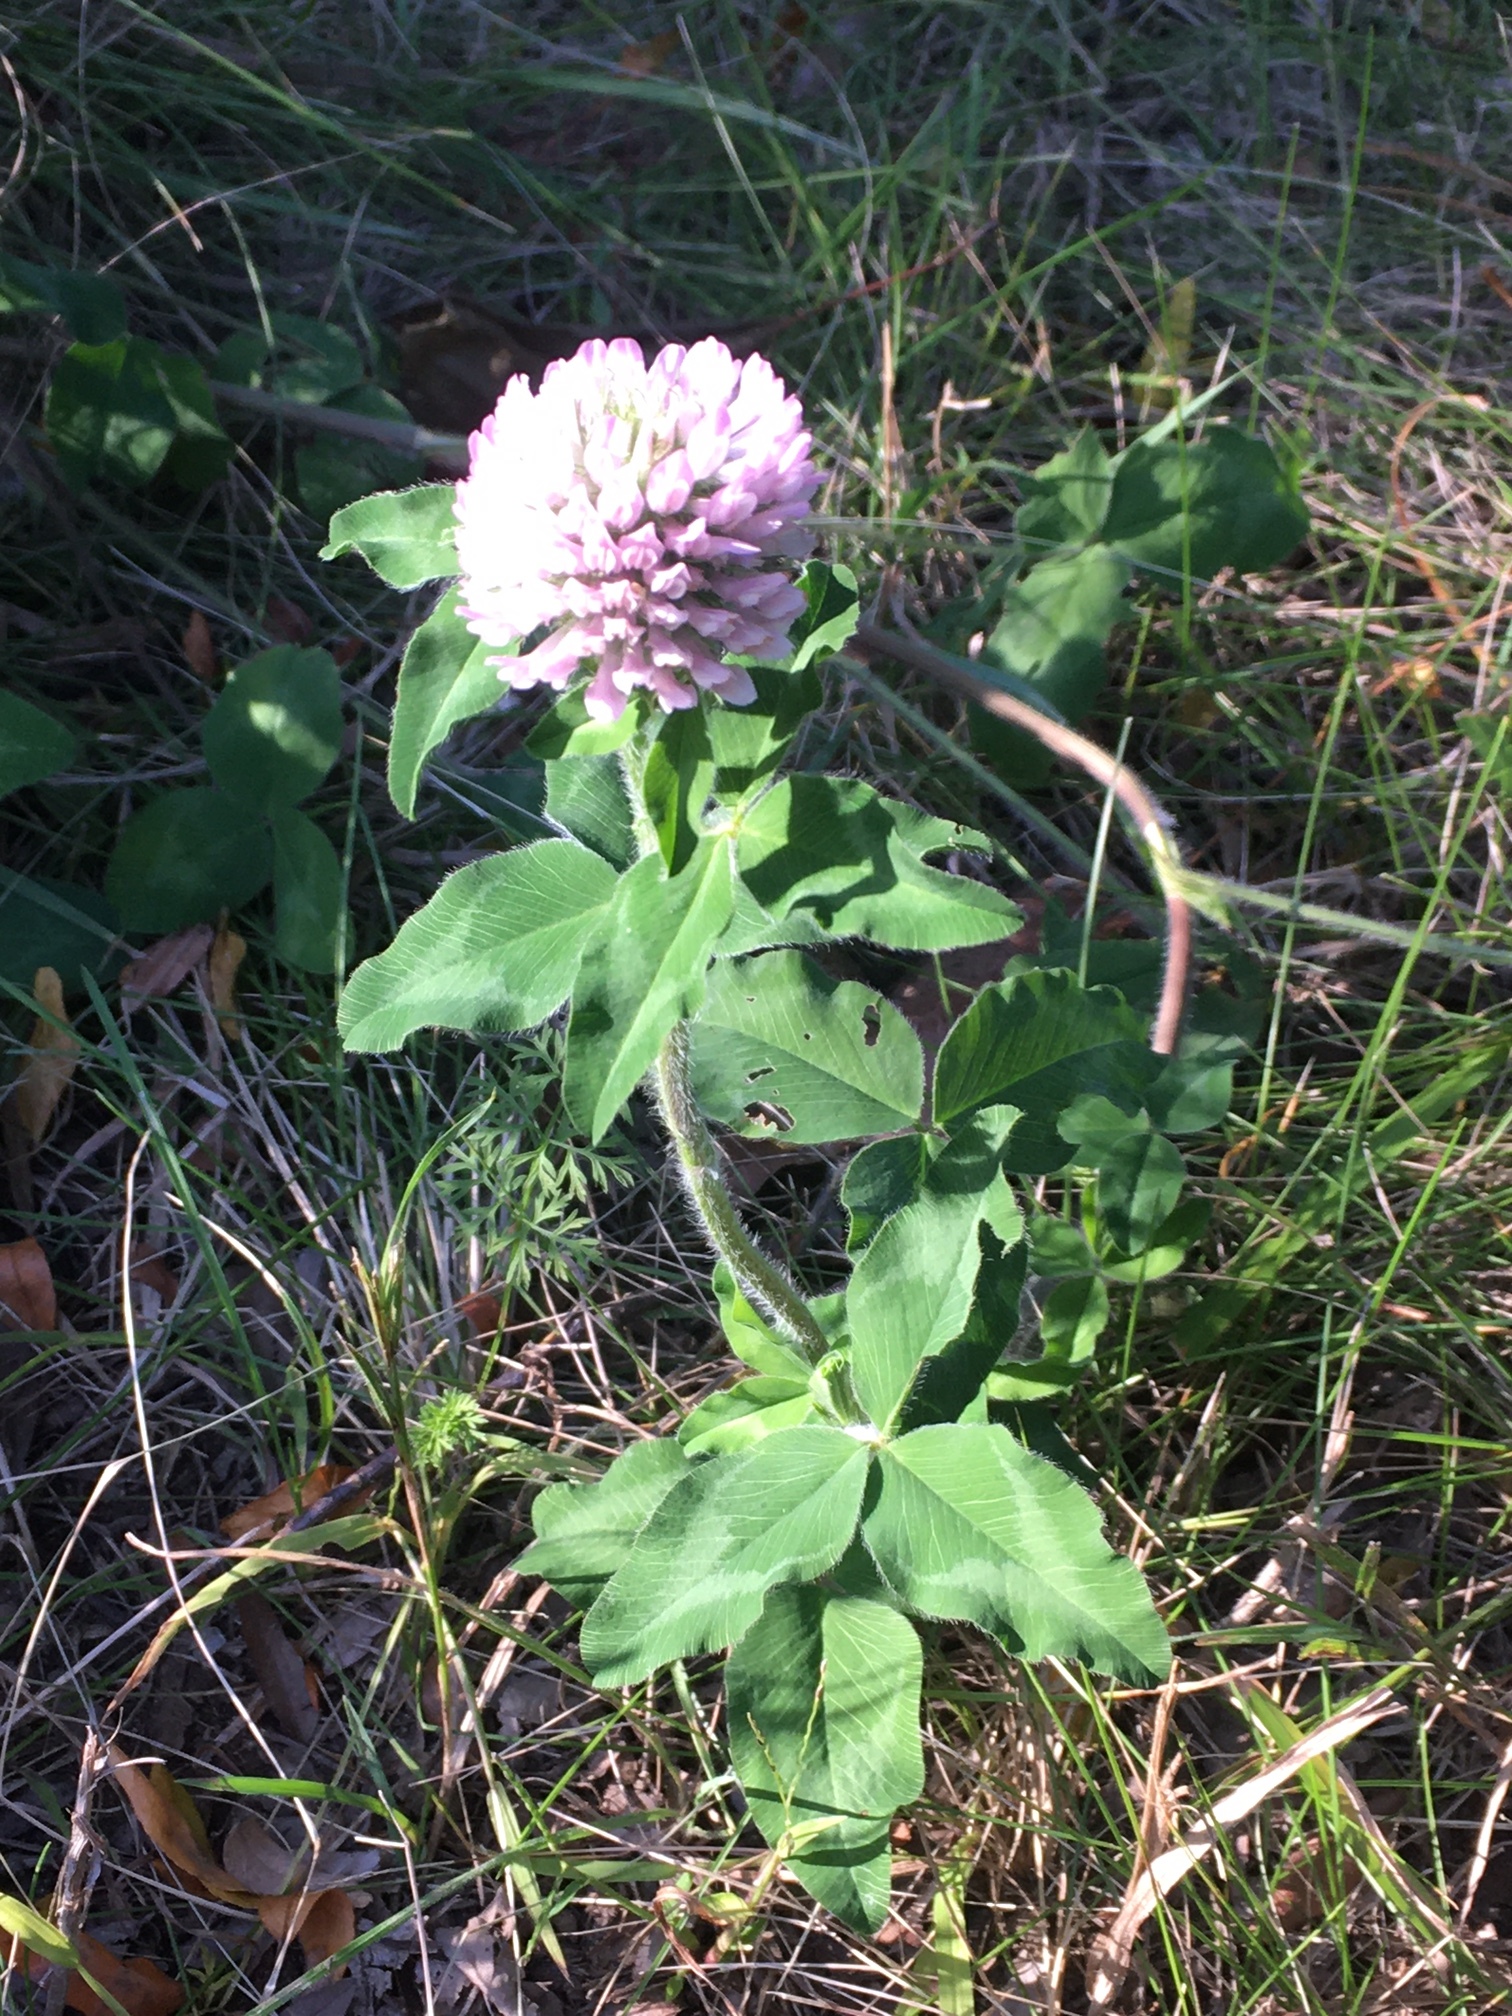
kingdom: Plantae
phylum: Tracheophyta
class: Magnoliopsida
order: Fabales
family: Fabaceae
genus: Trifolium
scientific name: Trifolium pratense
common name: Red clover
